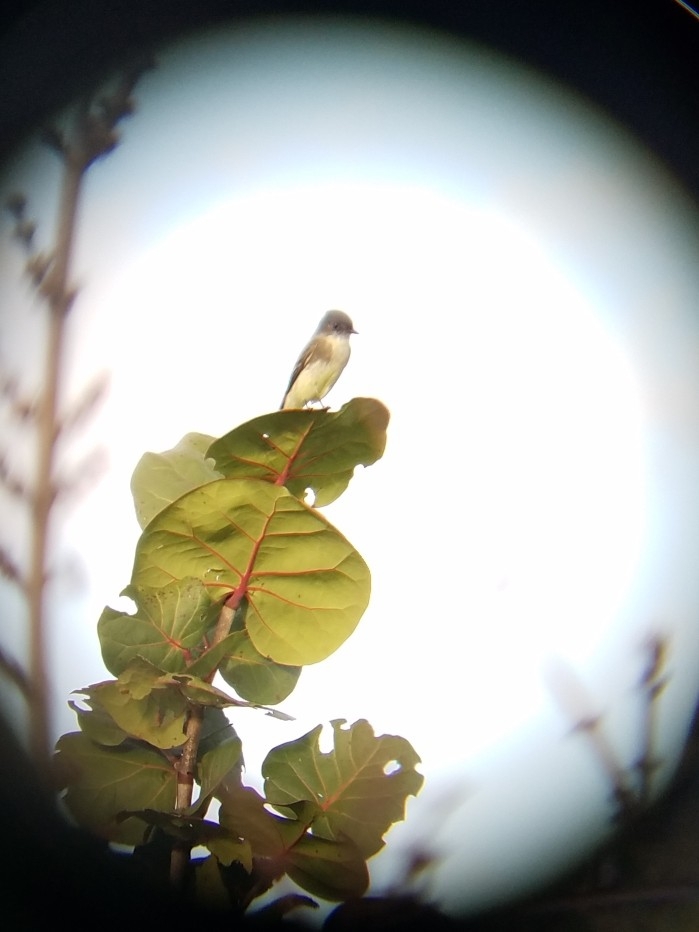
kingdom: Animalia
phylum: Chordata
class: Aves
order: Passeriformes
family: Tyrannidae
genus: Sayornis
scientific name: Sayornis phoebe
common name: Eastern phoebe
